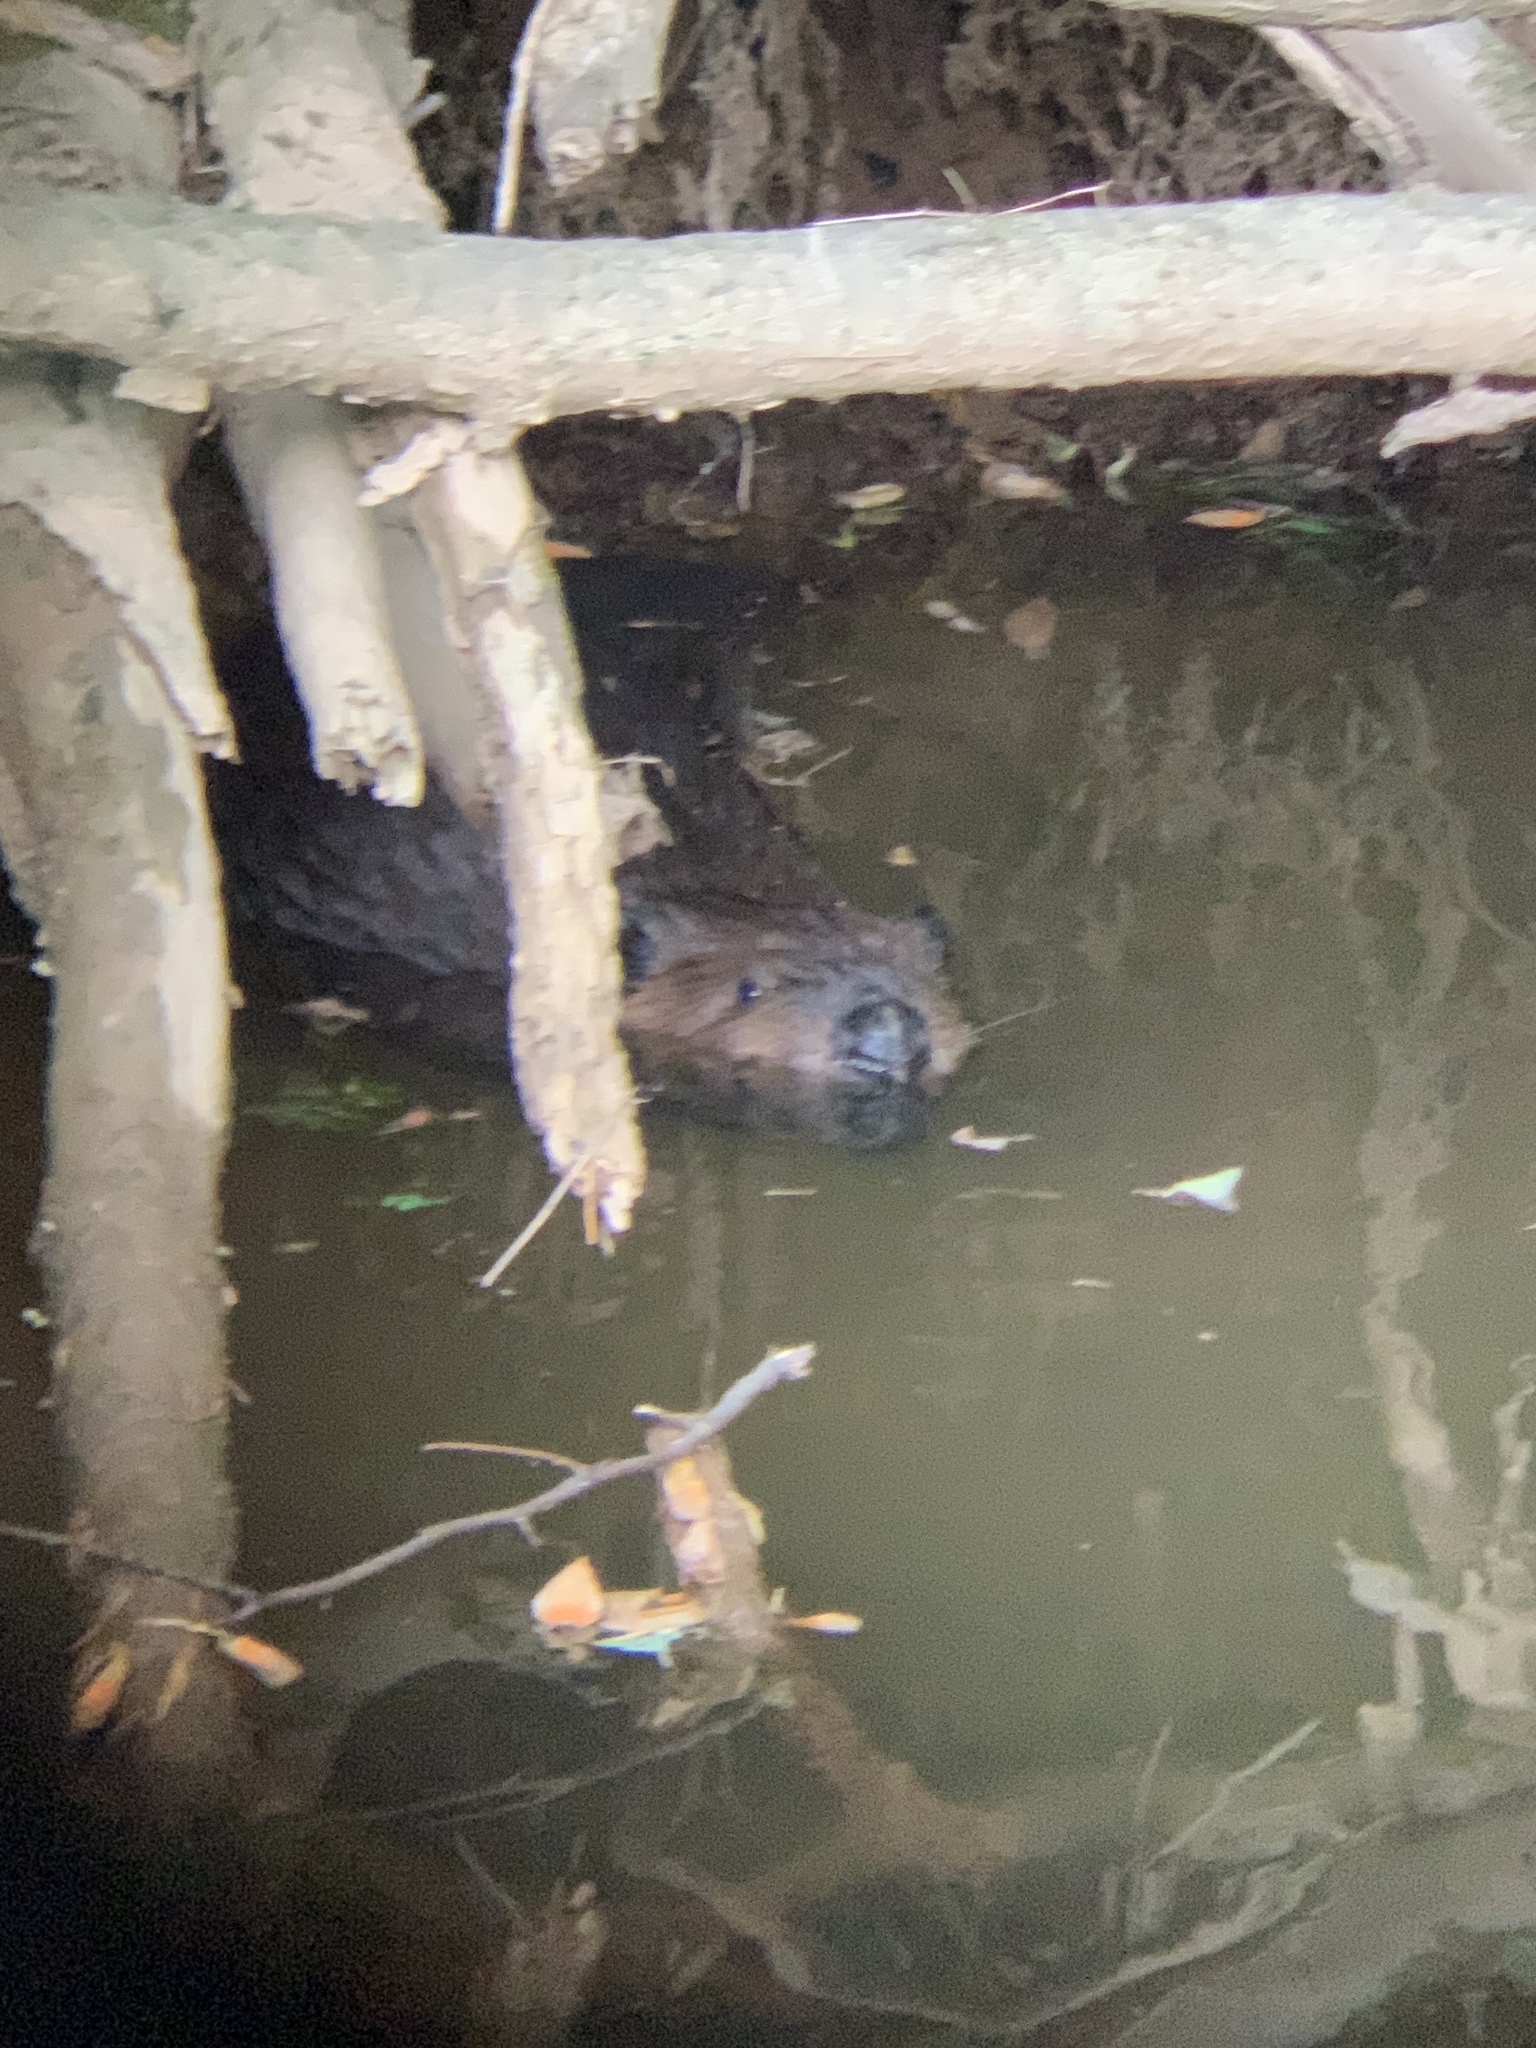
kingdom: Animalia
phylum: Chordata
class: Mammalia
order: Rodentia
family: Castoridae
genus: Castor
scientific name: Castor canadensis
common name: American beaver
